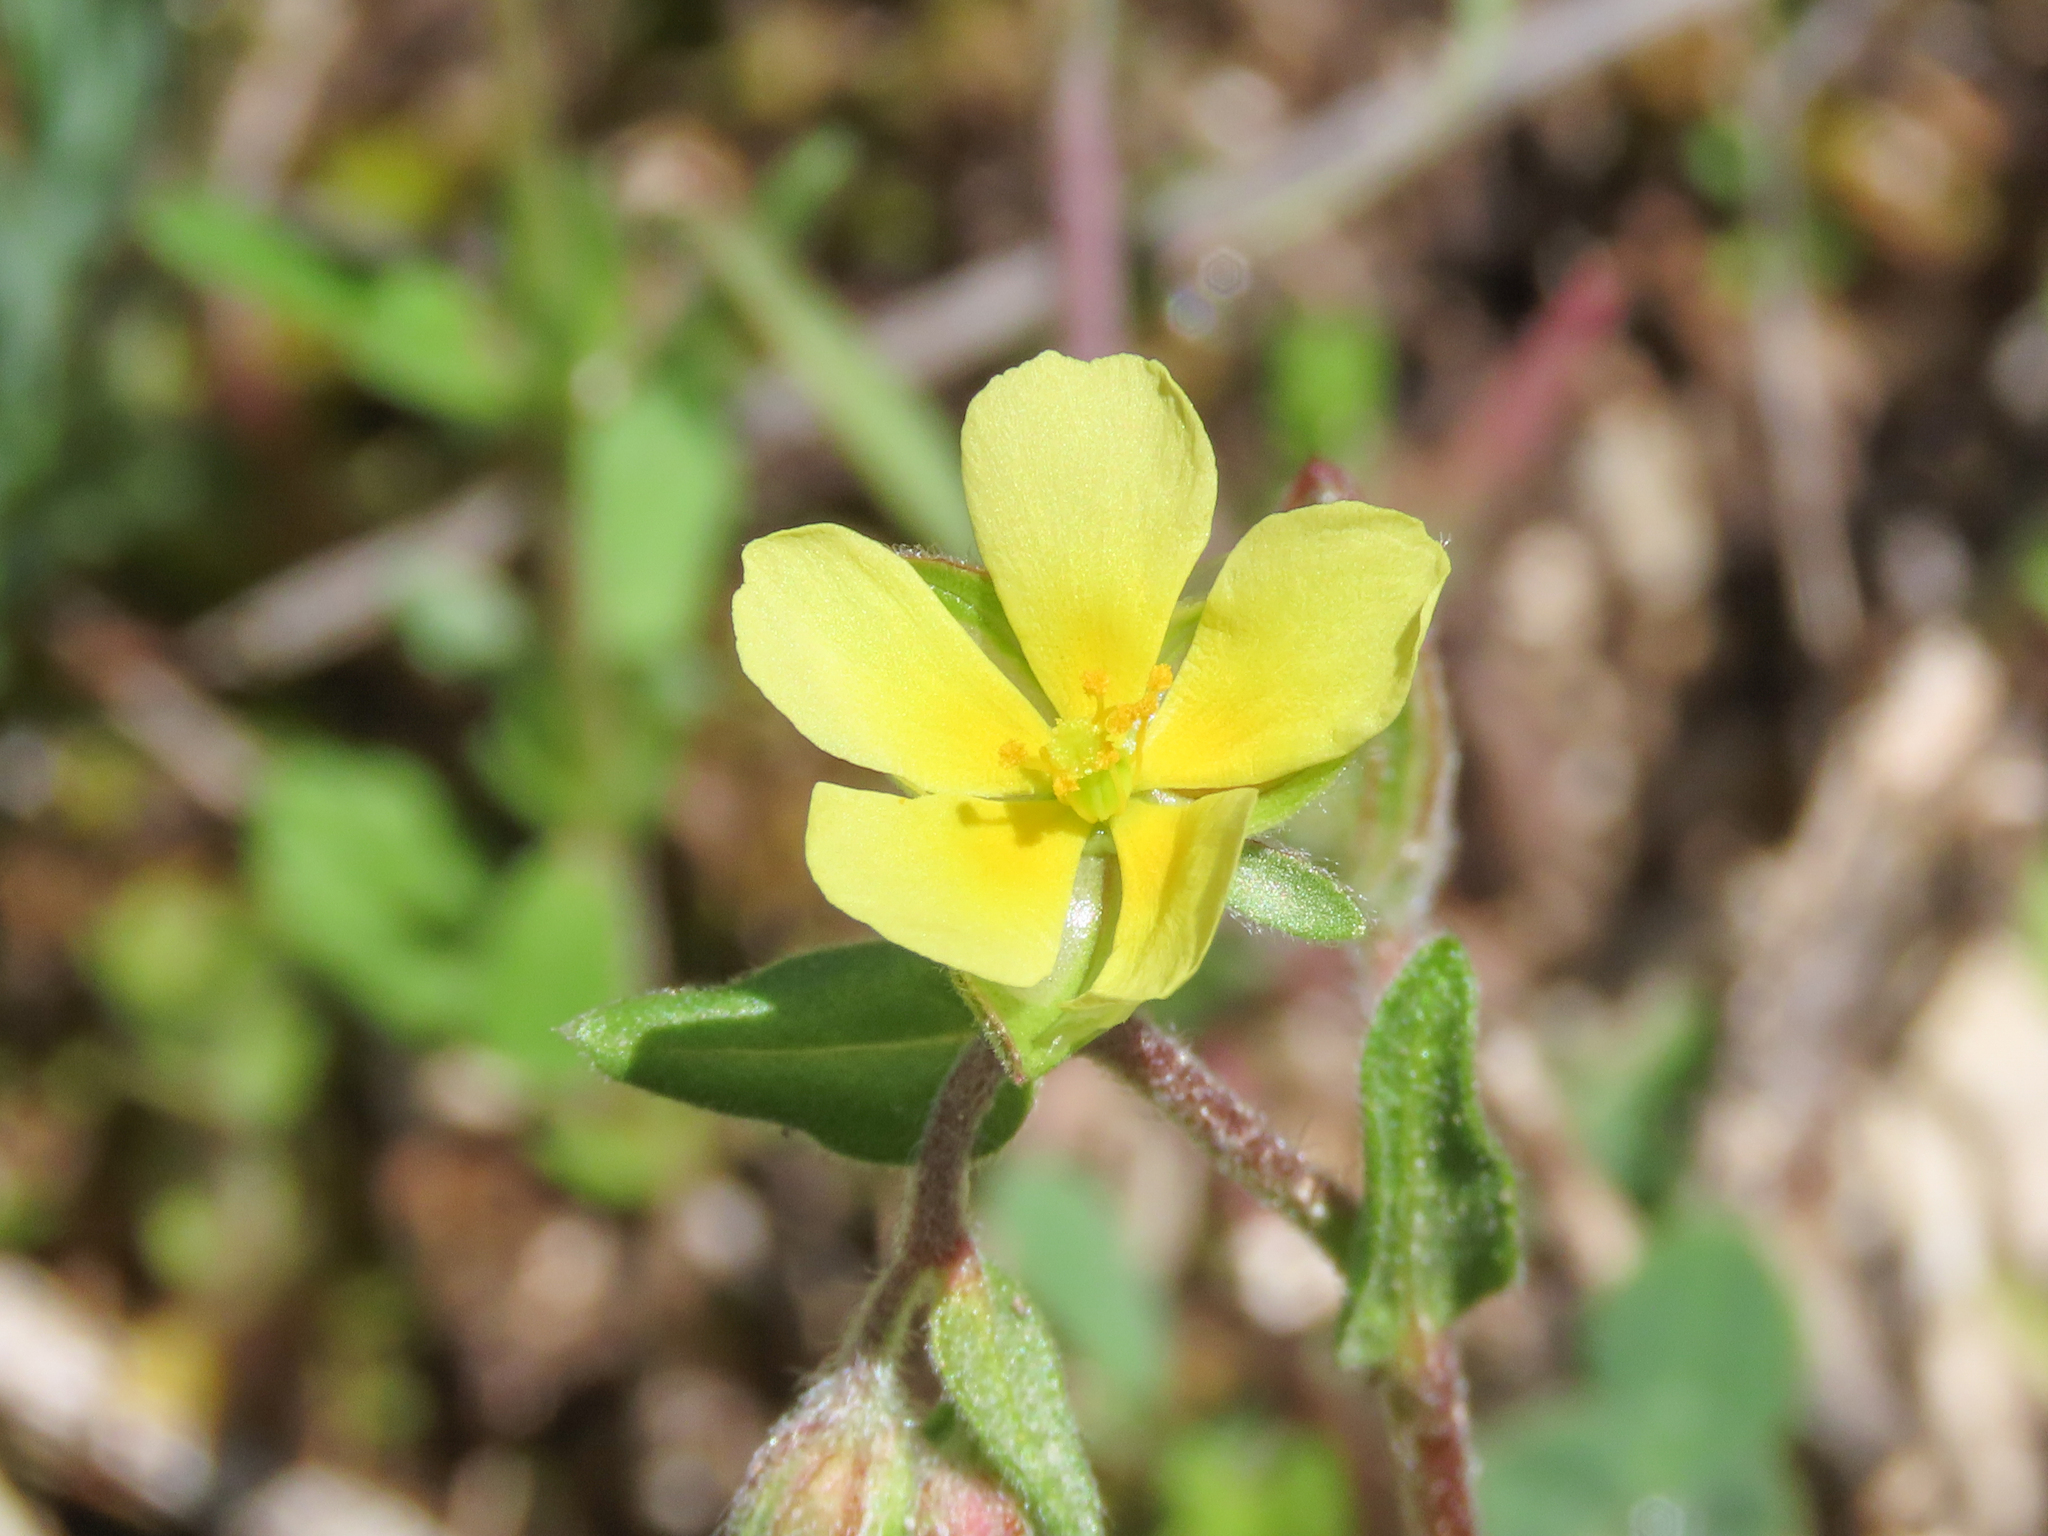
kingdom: Plantae
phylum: Tracheophyta
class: Magnoliopsida
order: Malvales
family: Cistaceae
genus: Helianthemum
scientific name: Helianthemum salicifolium
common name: Willowleaf frostweed
